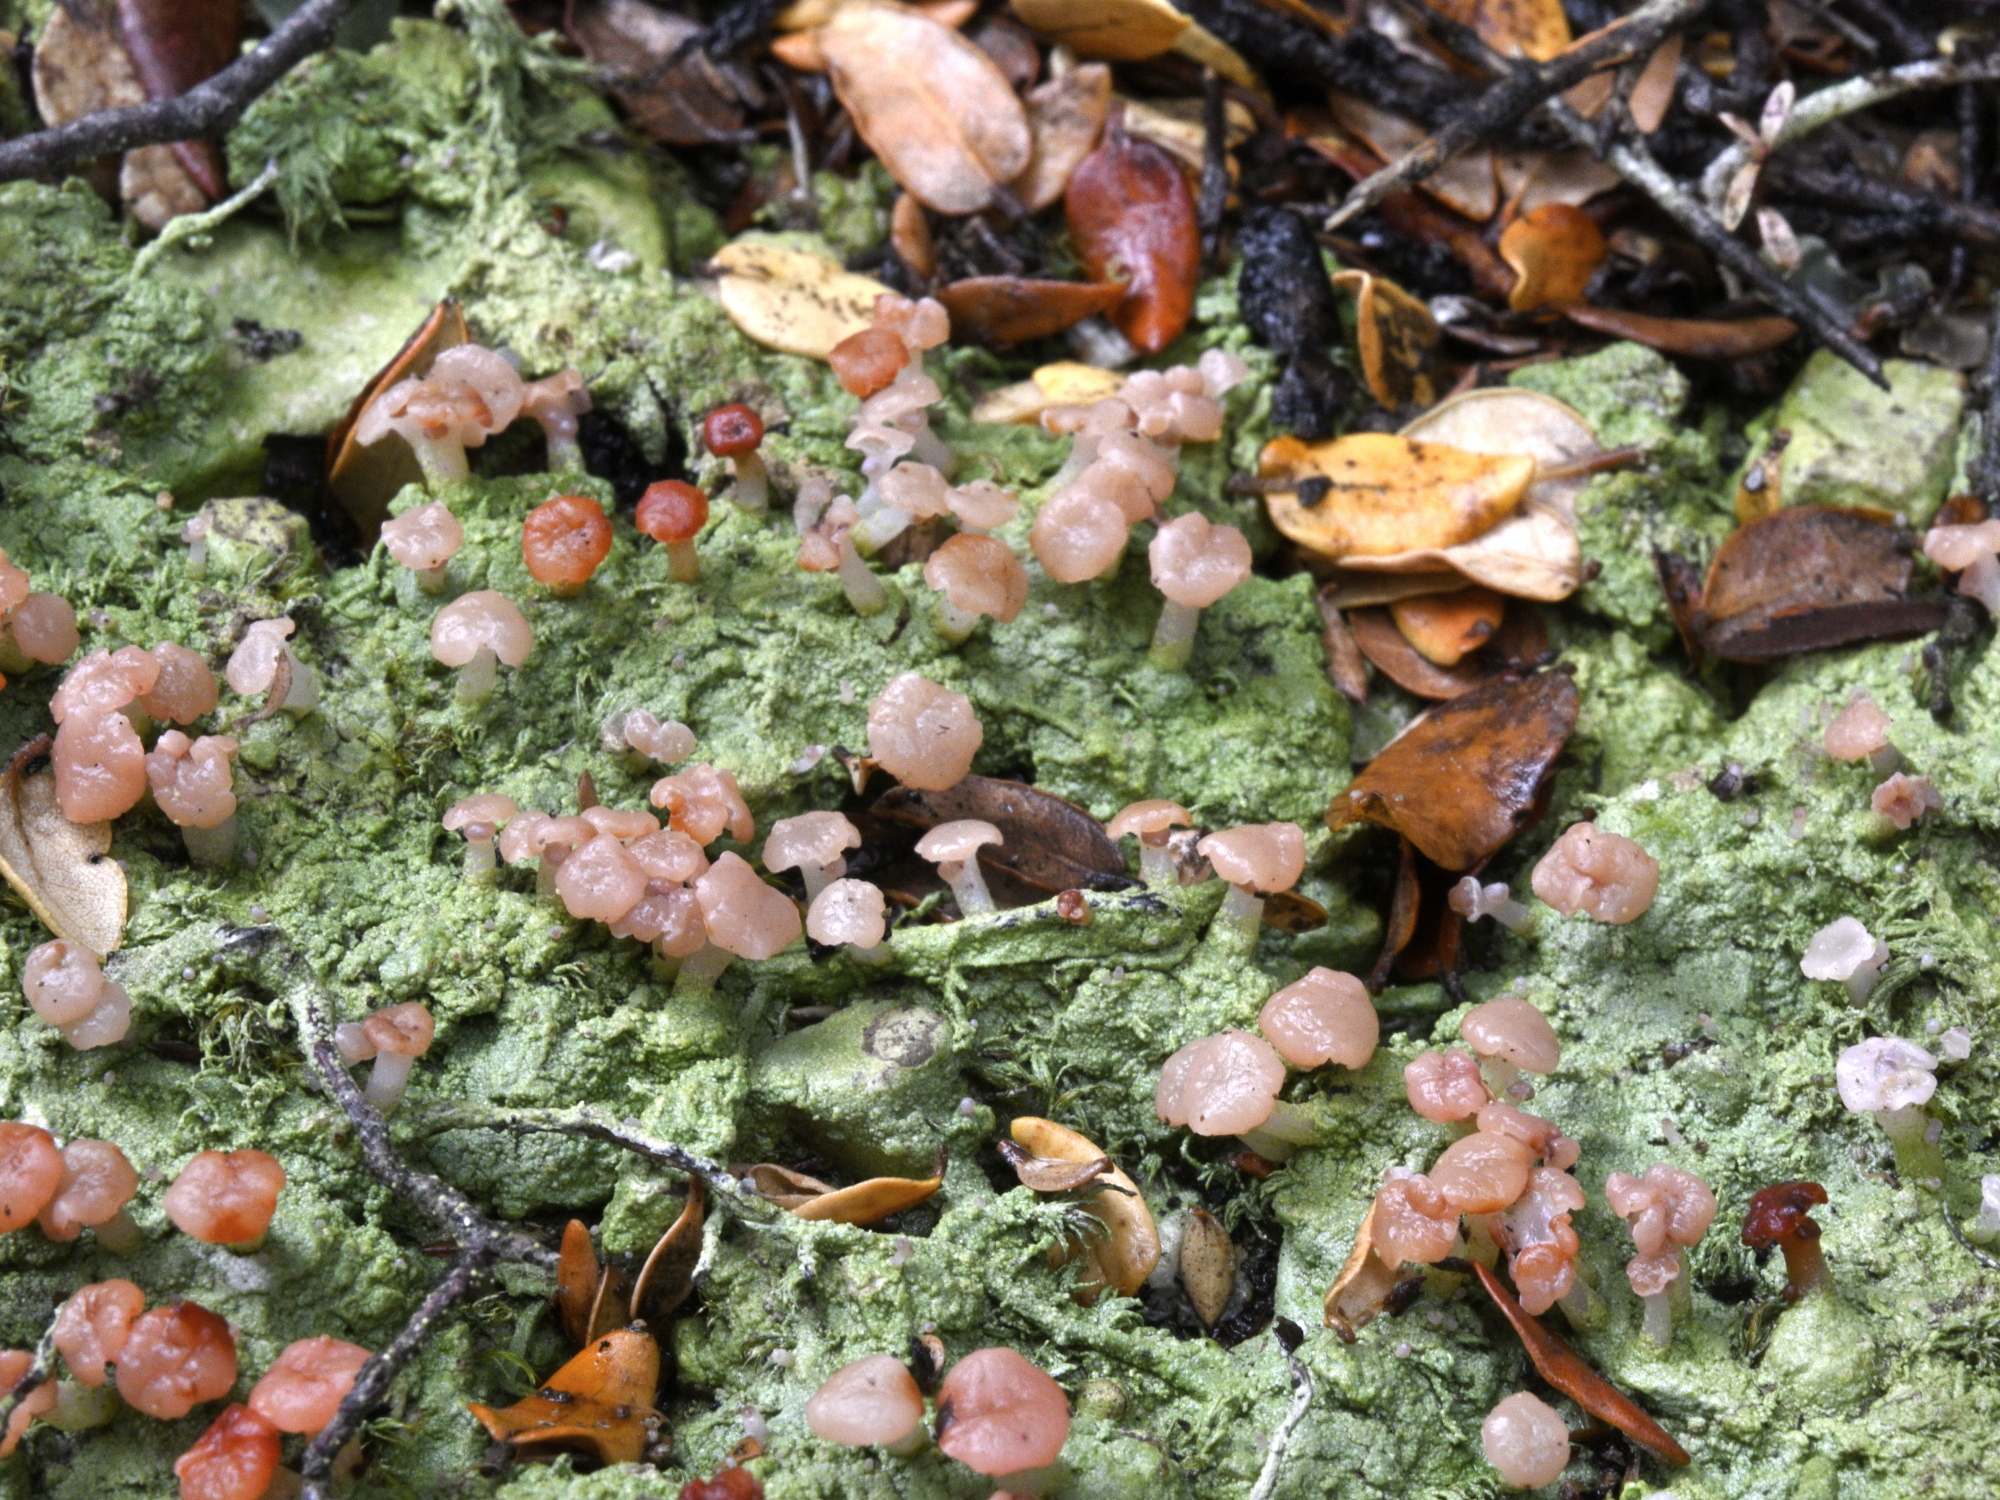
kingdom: Fungi
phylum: Ascomycota
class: Lecanoromycetes
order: Baeomycetales
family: Baeomycetaceae
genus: Baeomyces
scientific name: Baeomyces heteromorphus
